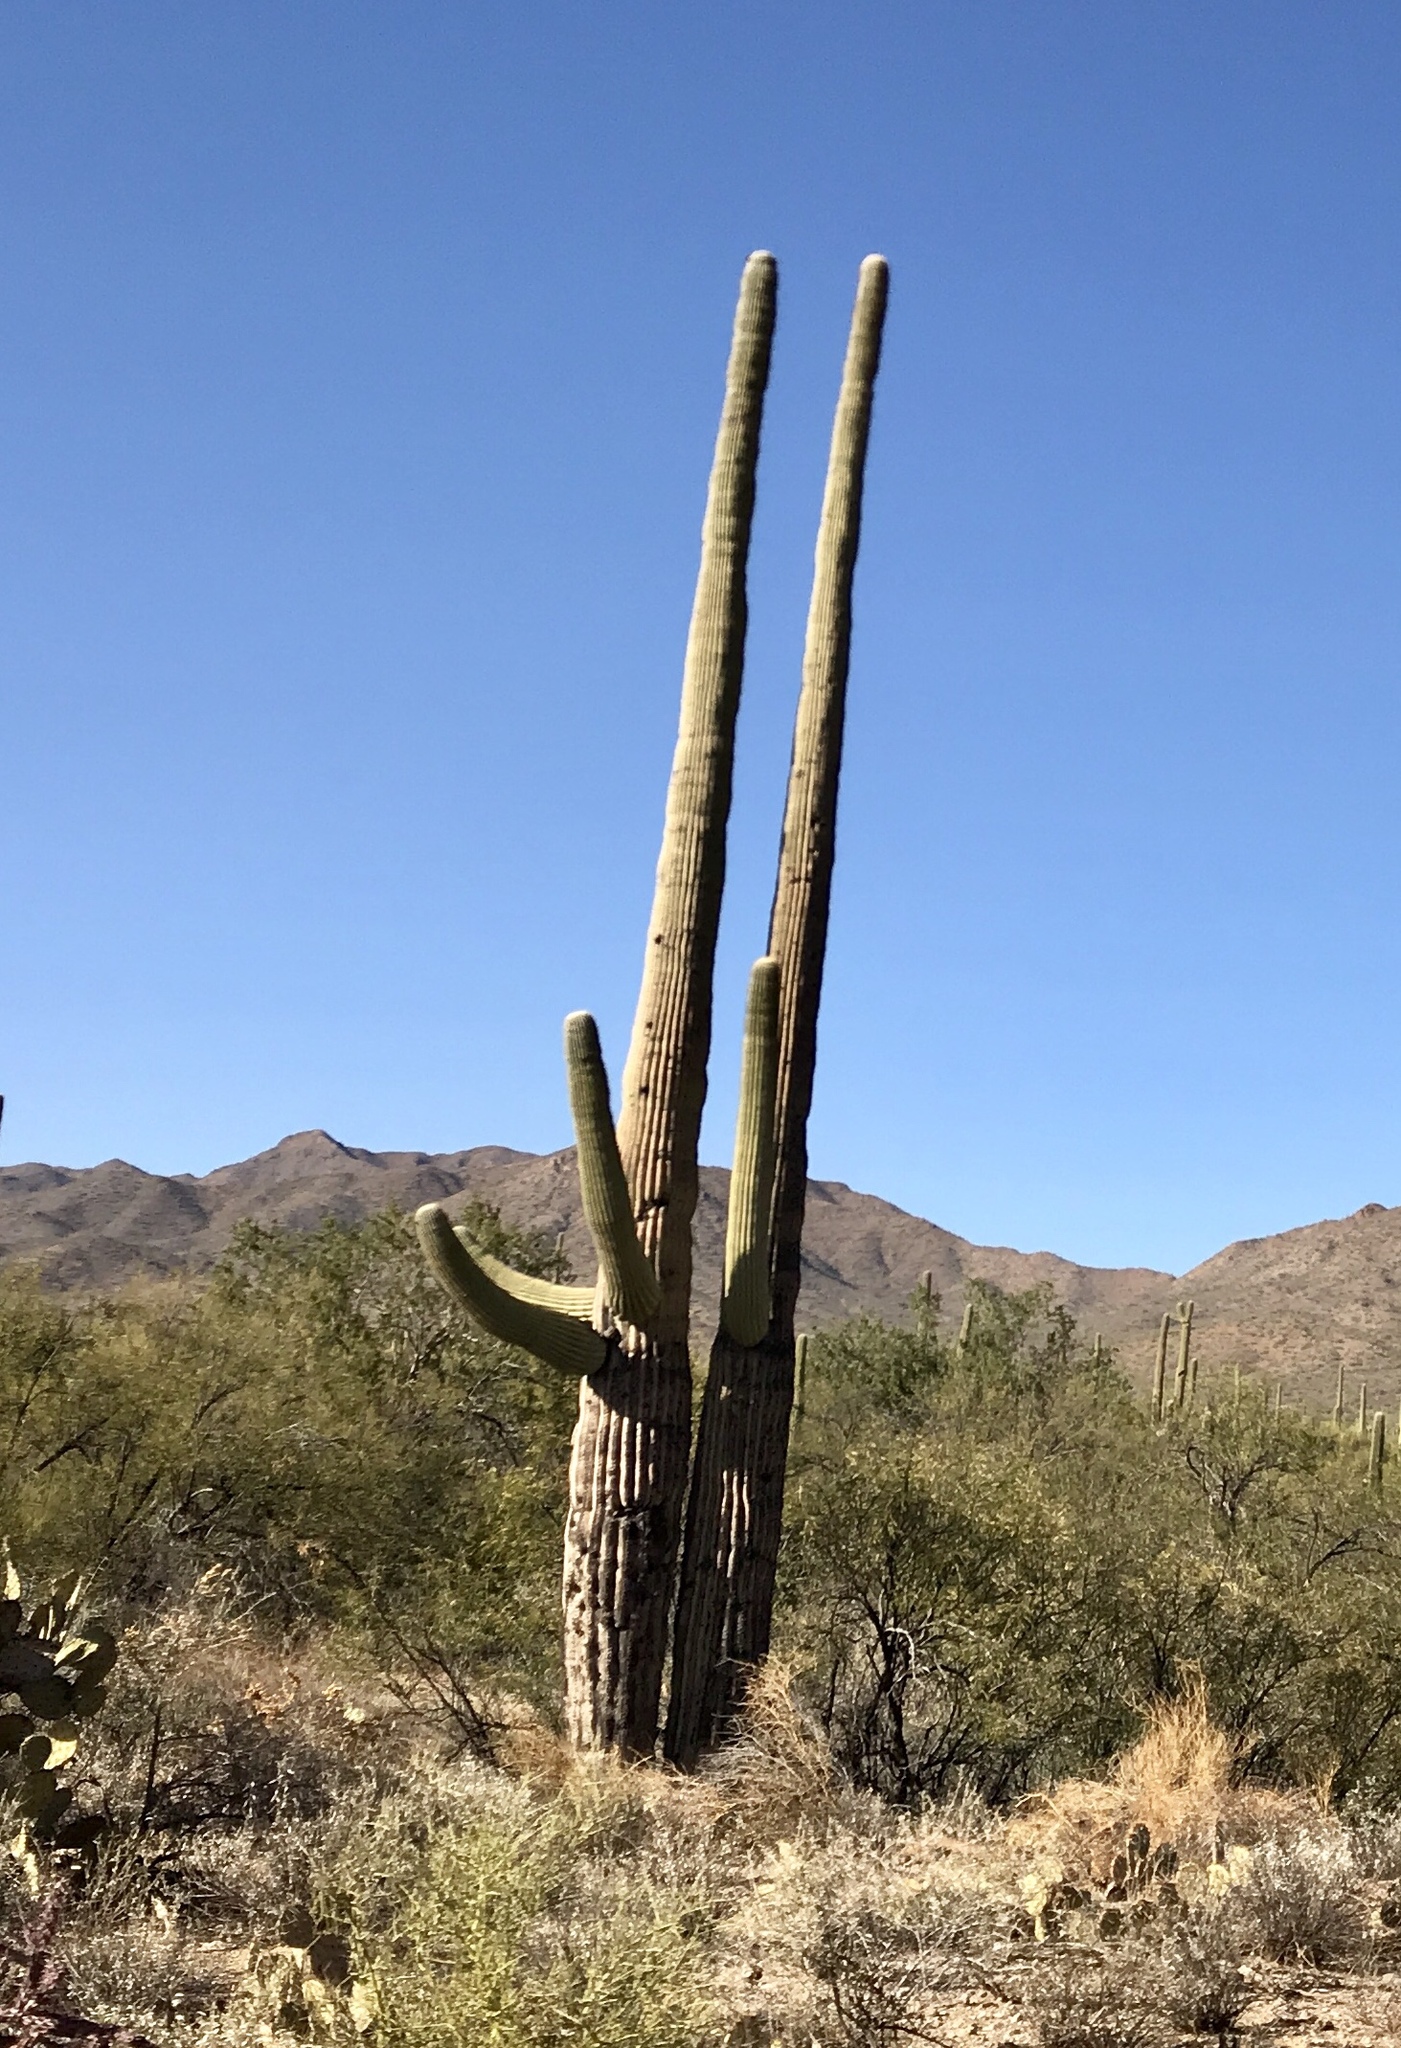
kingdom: Plantae
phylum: Tracheophyta
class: Magnoliopsida
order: Caryophyllales
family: Cactaceae
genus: Carnegiea
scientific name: Carnegiea gigantea
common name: Saguaro
